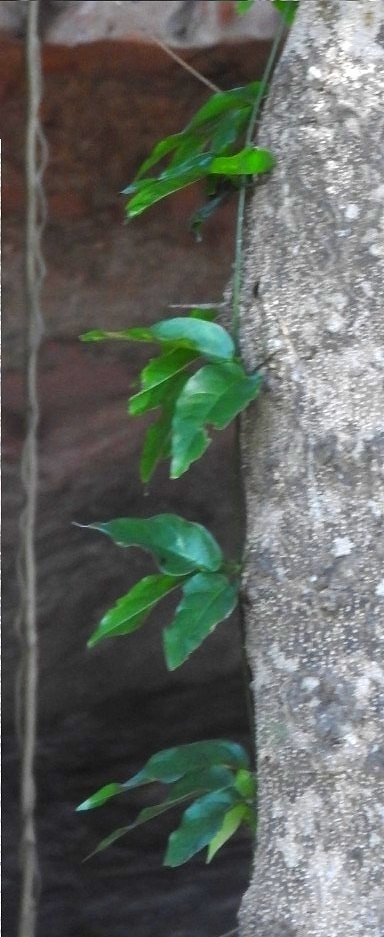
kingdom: Plantae
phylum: Tracheophyta
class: Magnoliopsida
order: Lamiales
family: Bignoniaceae
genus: Dolichandra
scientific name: Dolichandra unguis-cati
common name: Catclaw vine
